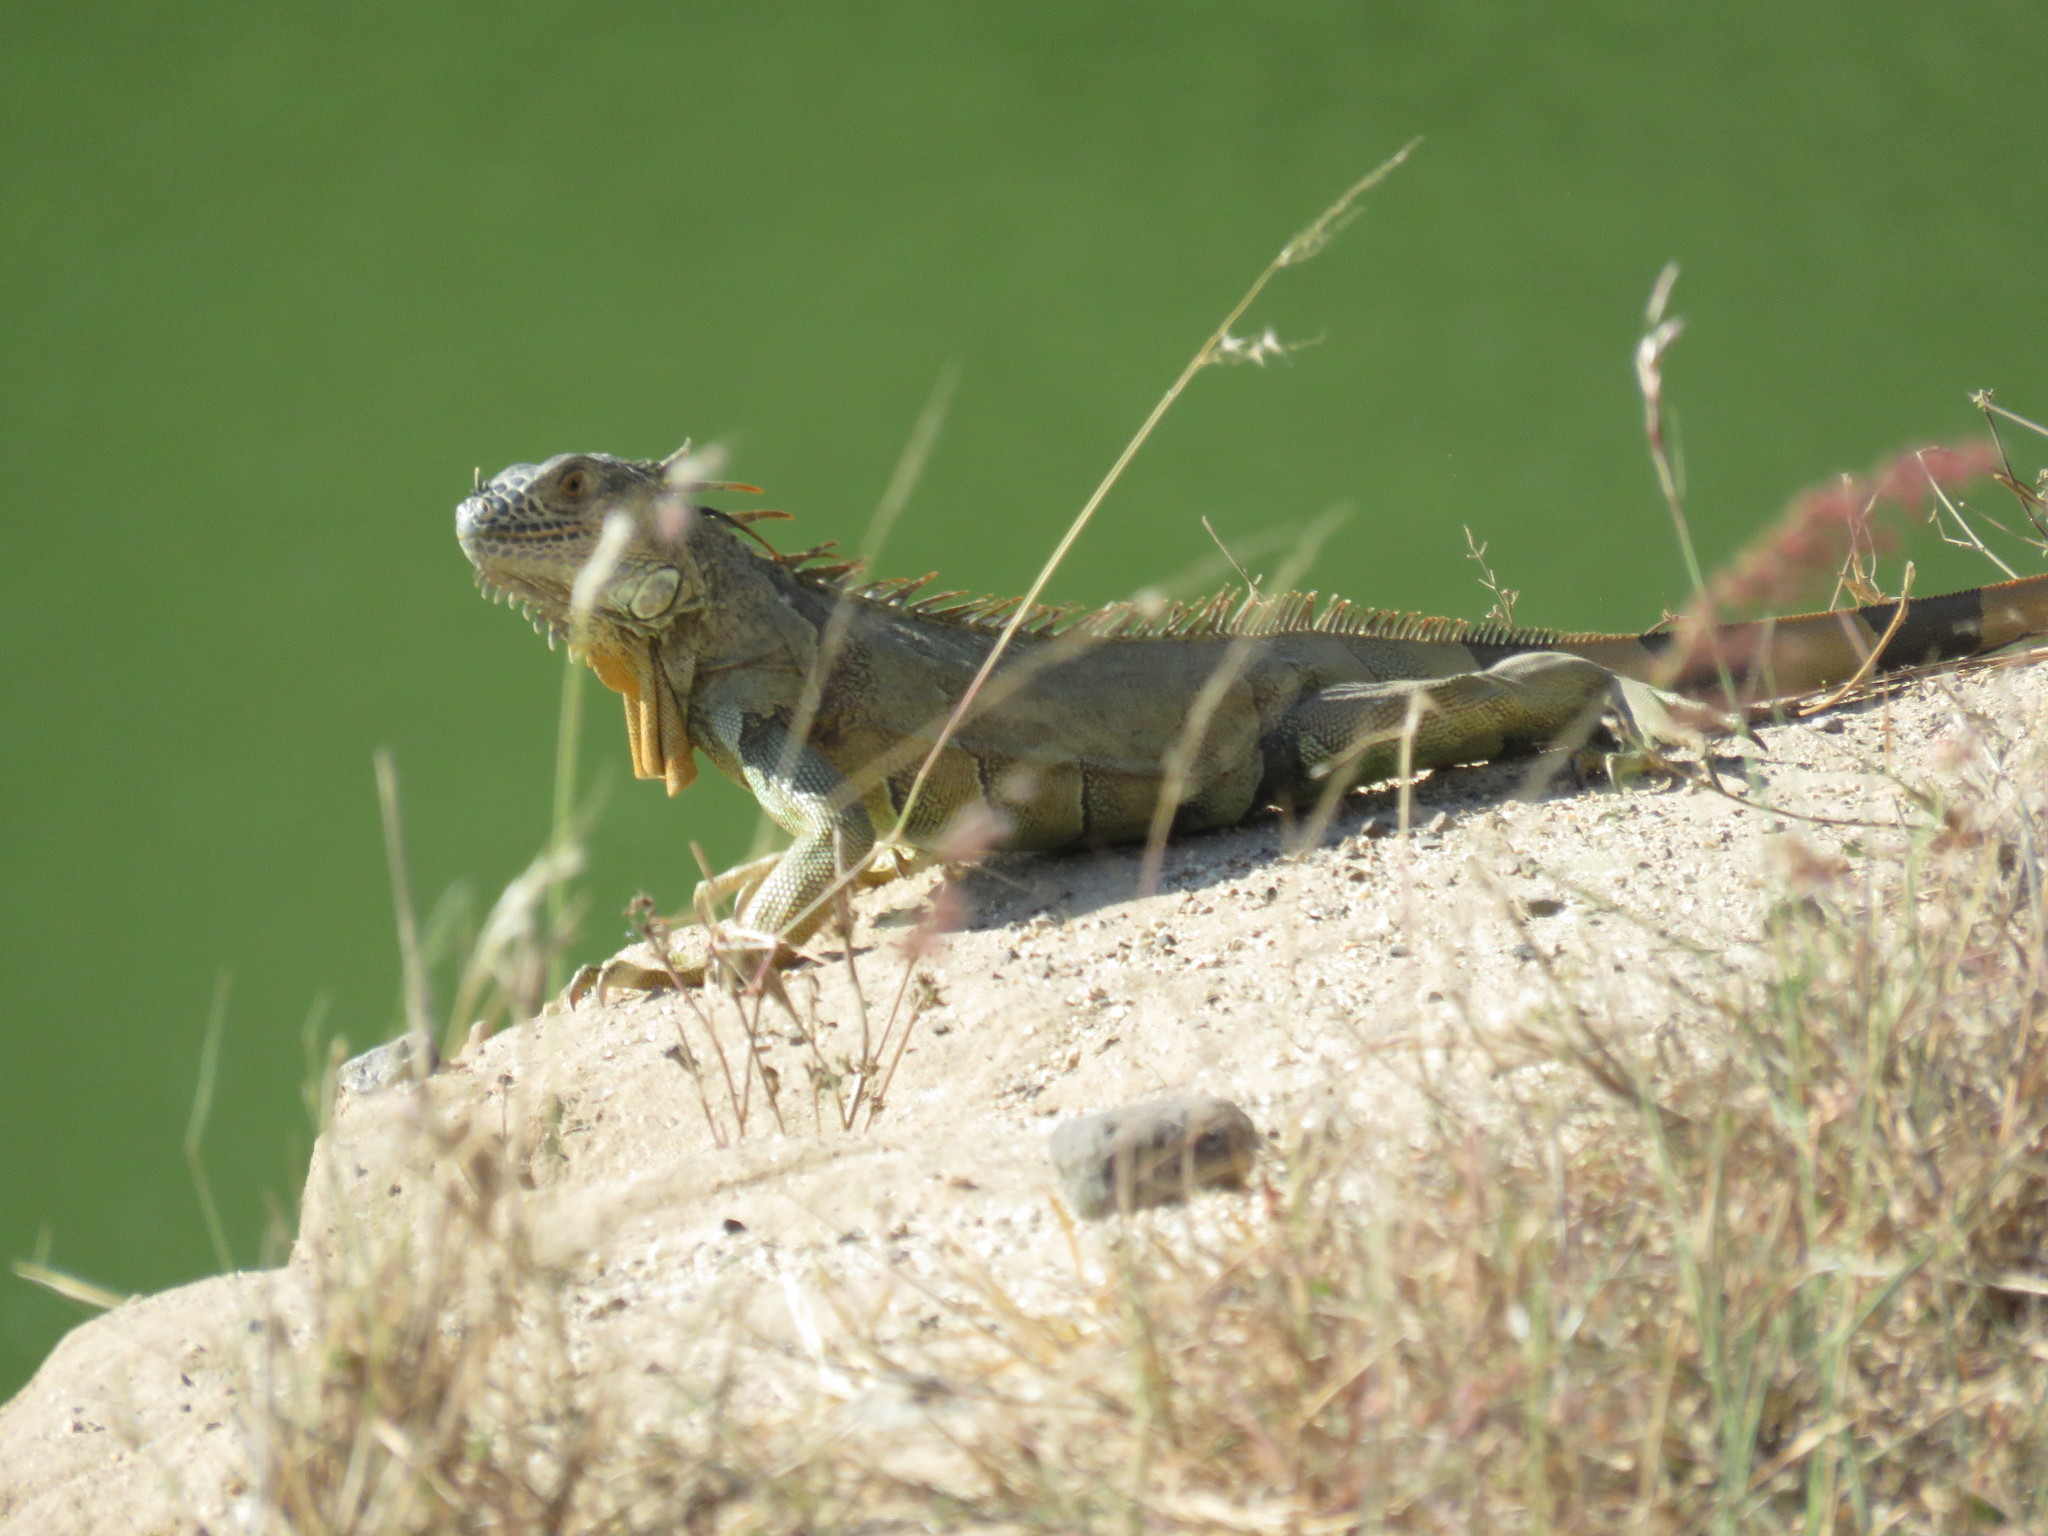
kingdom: Animalia
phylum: Chordata
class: Squamata
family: Iguanidae
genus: Iguana
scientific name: Iguana iguana
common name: Green iguana
